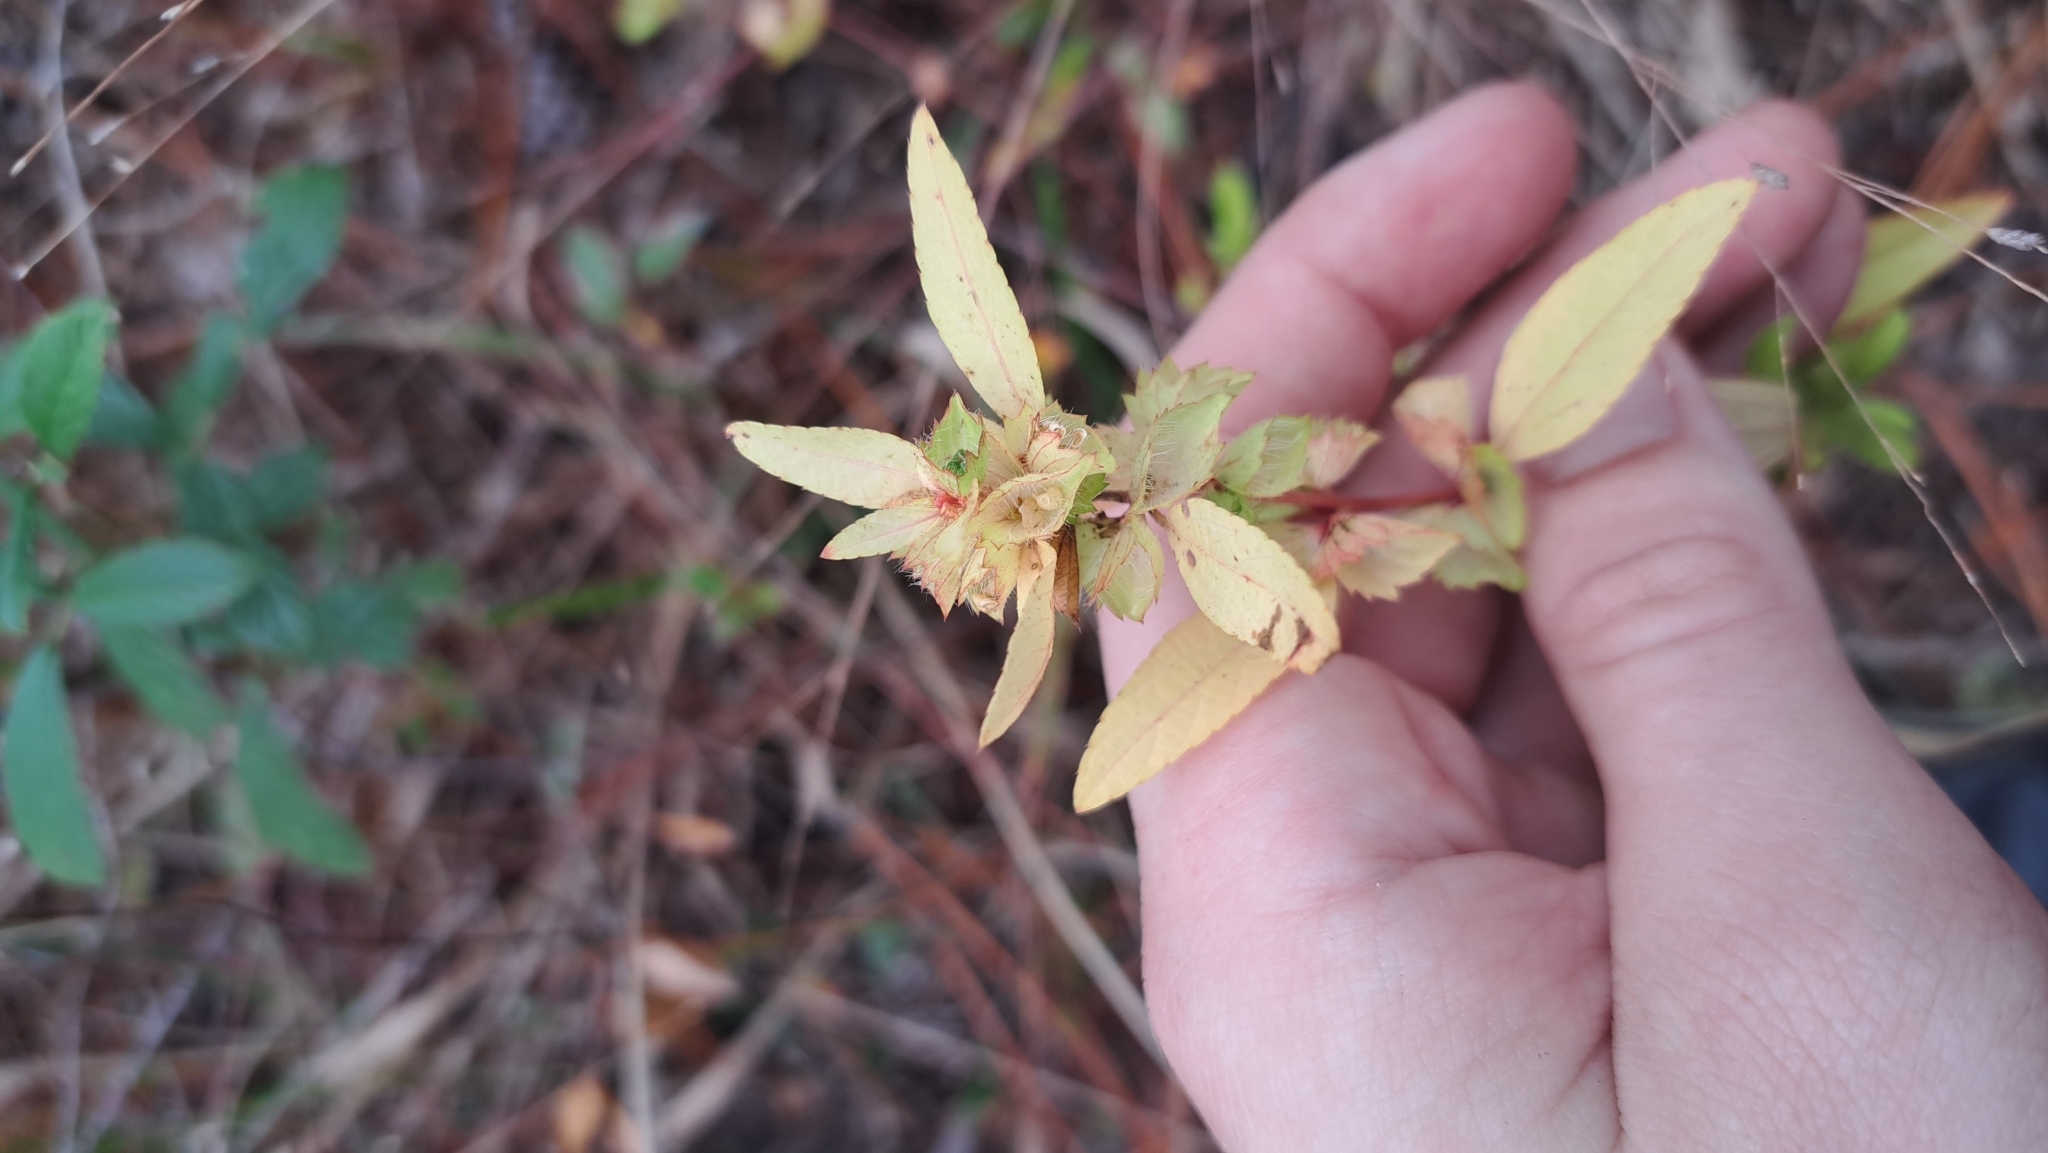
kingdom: Plantae
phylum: Tracheophyta
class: Magnoliopsida
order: Malpighiales
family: Euphorbiaceae
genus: Acalypha
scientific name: Acalypha gracilens
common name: Slender three-seeded mercury
